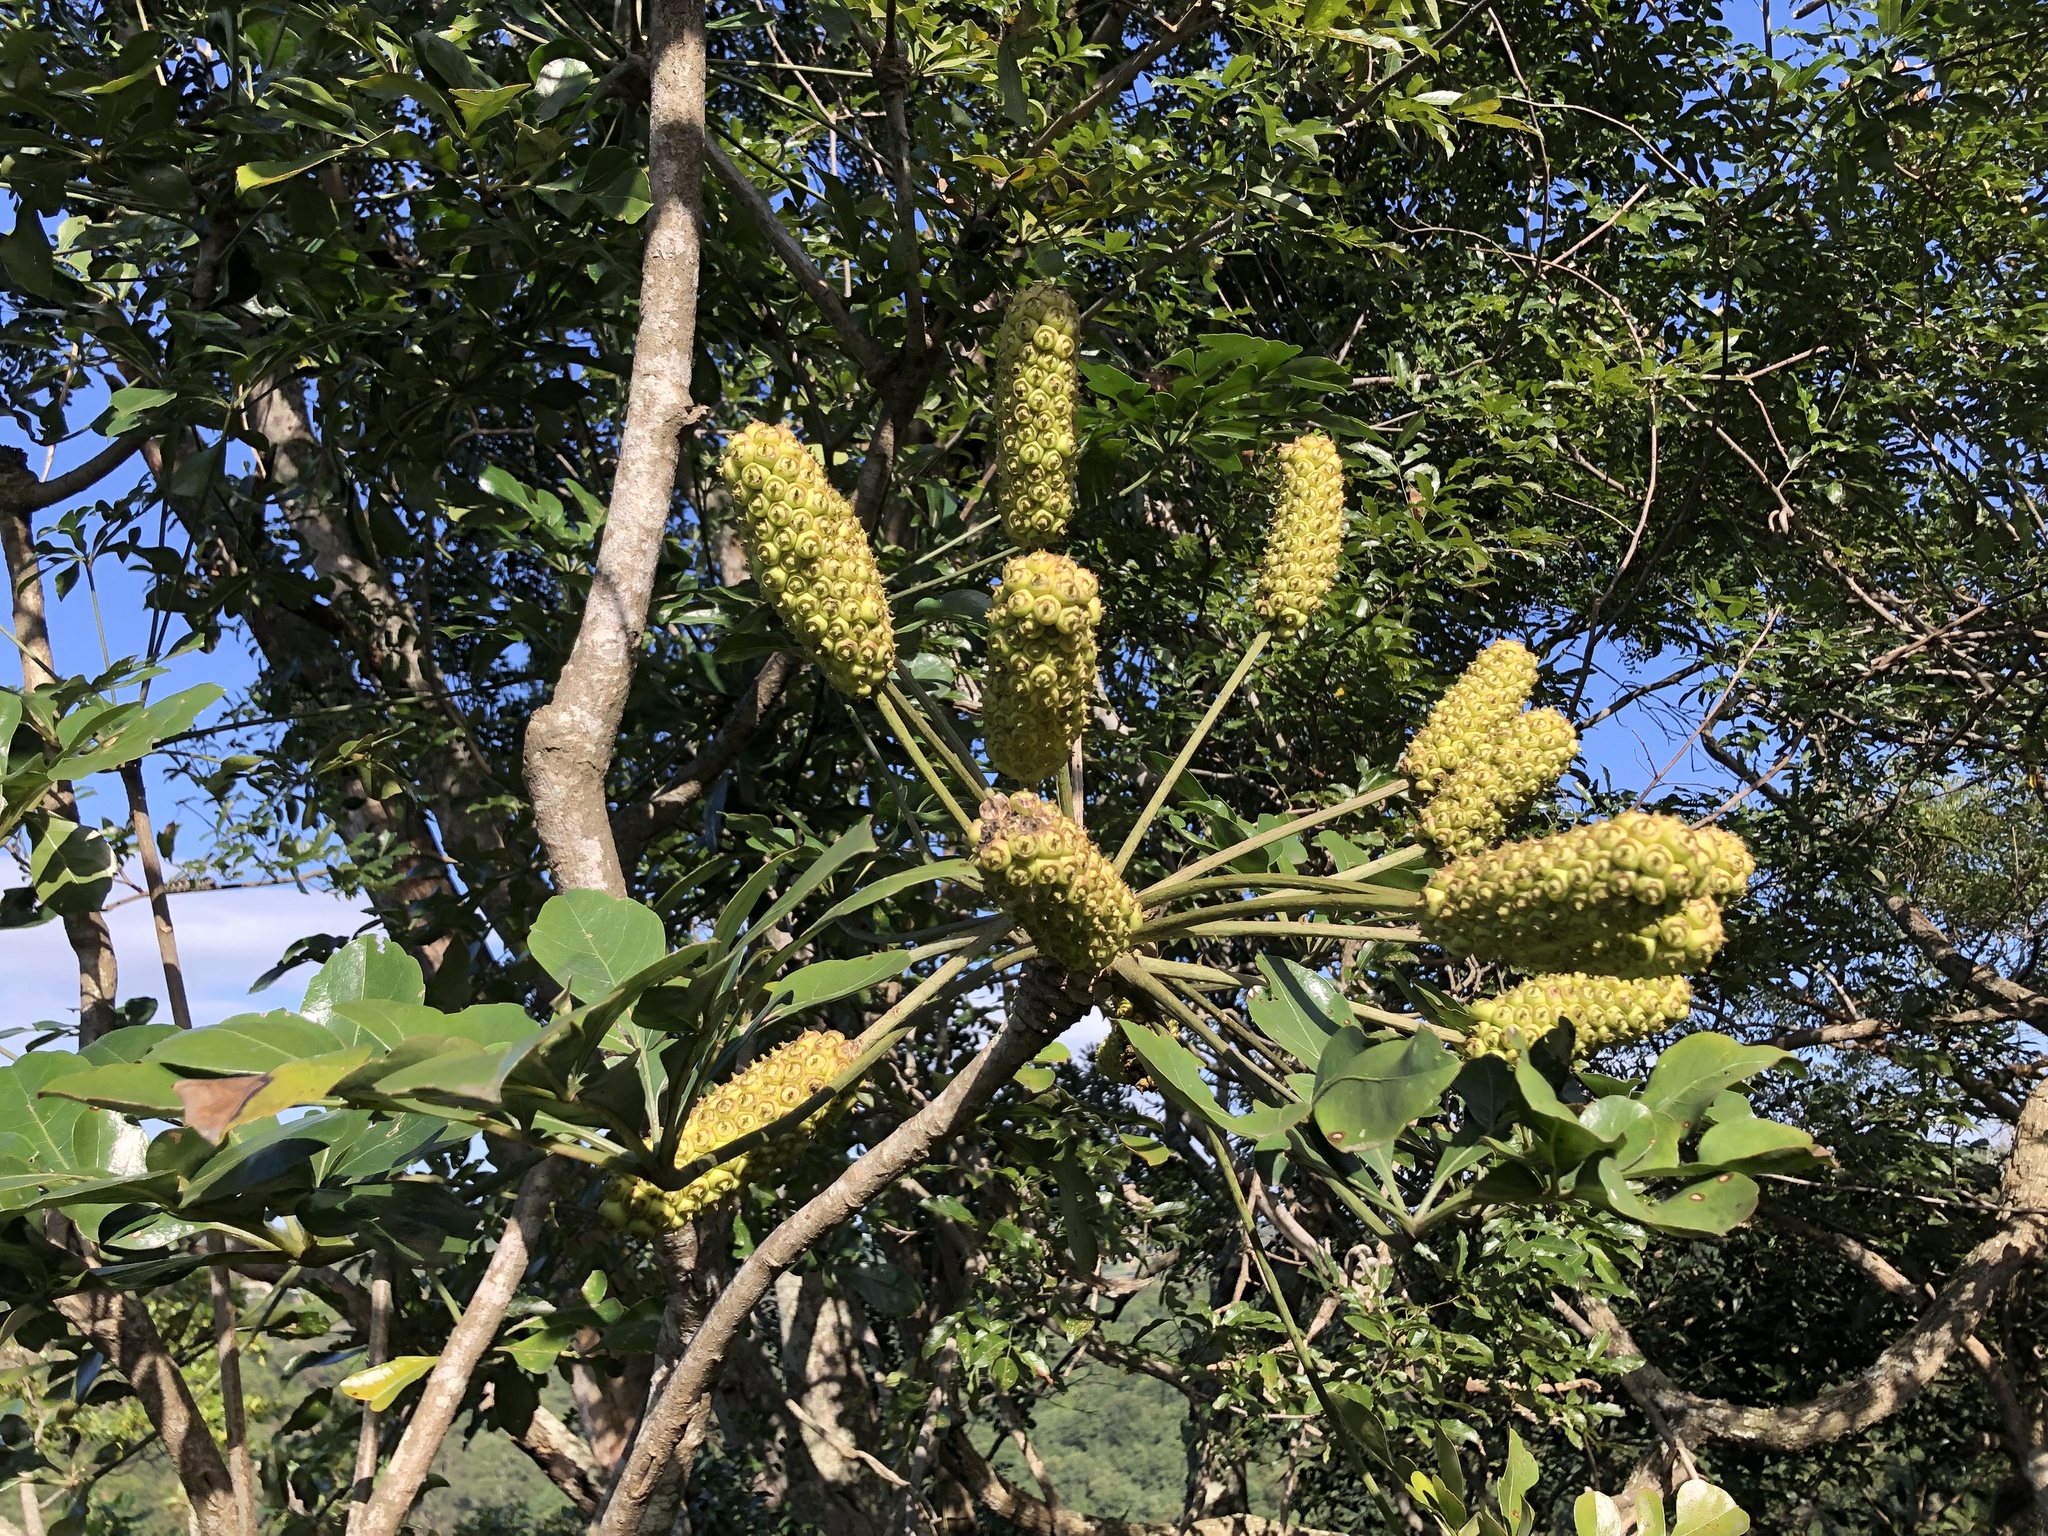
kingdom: Plantae
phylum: Tracheophyta
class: Magnoliopsida
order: Apiales
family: Araliaceae
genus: Cussonia
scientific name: Cussonia arenicola
